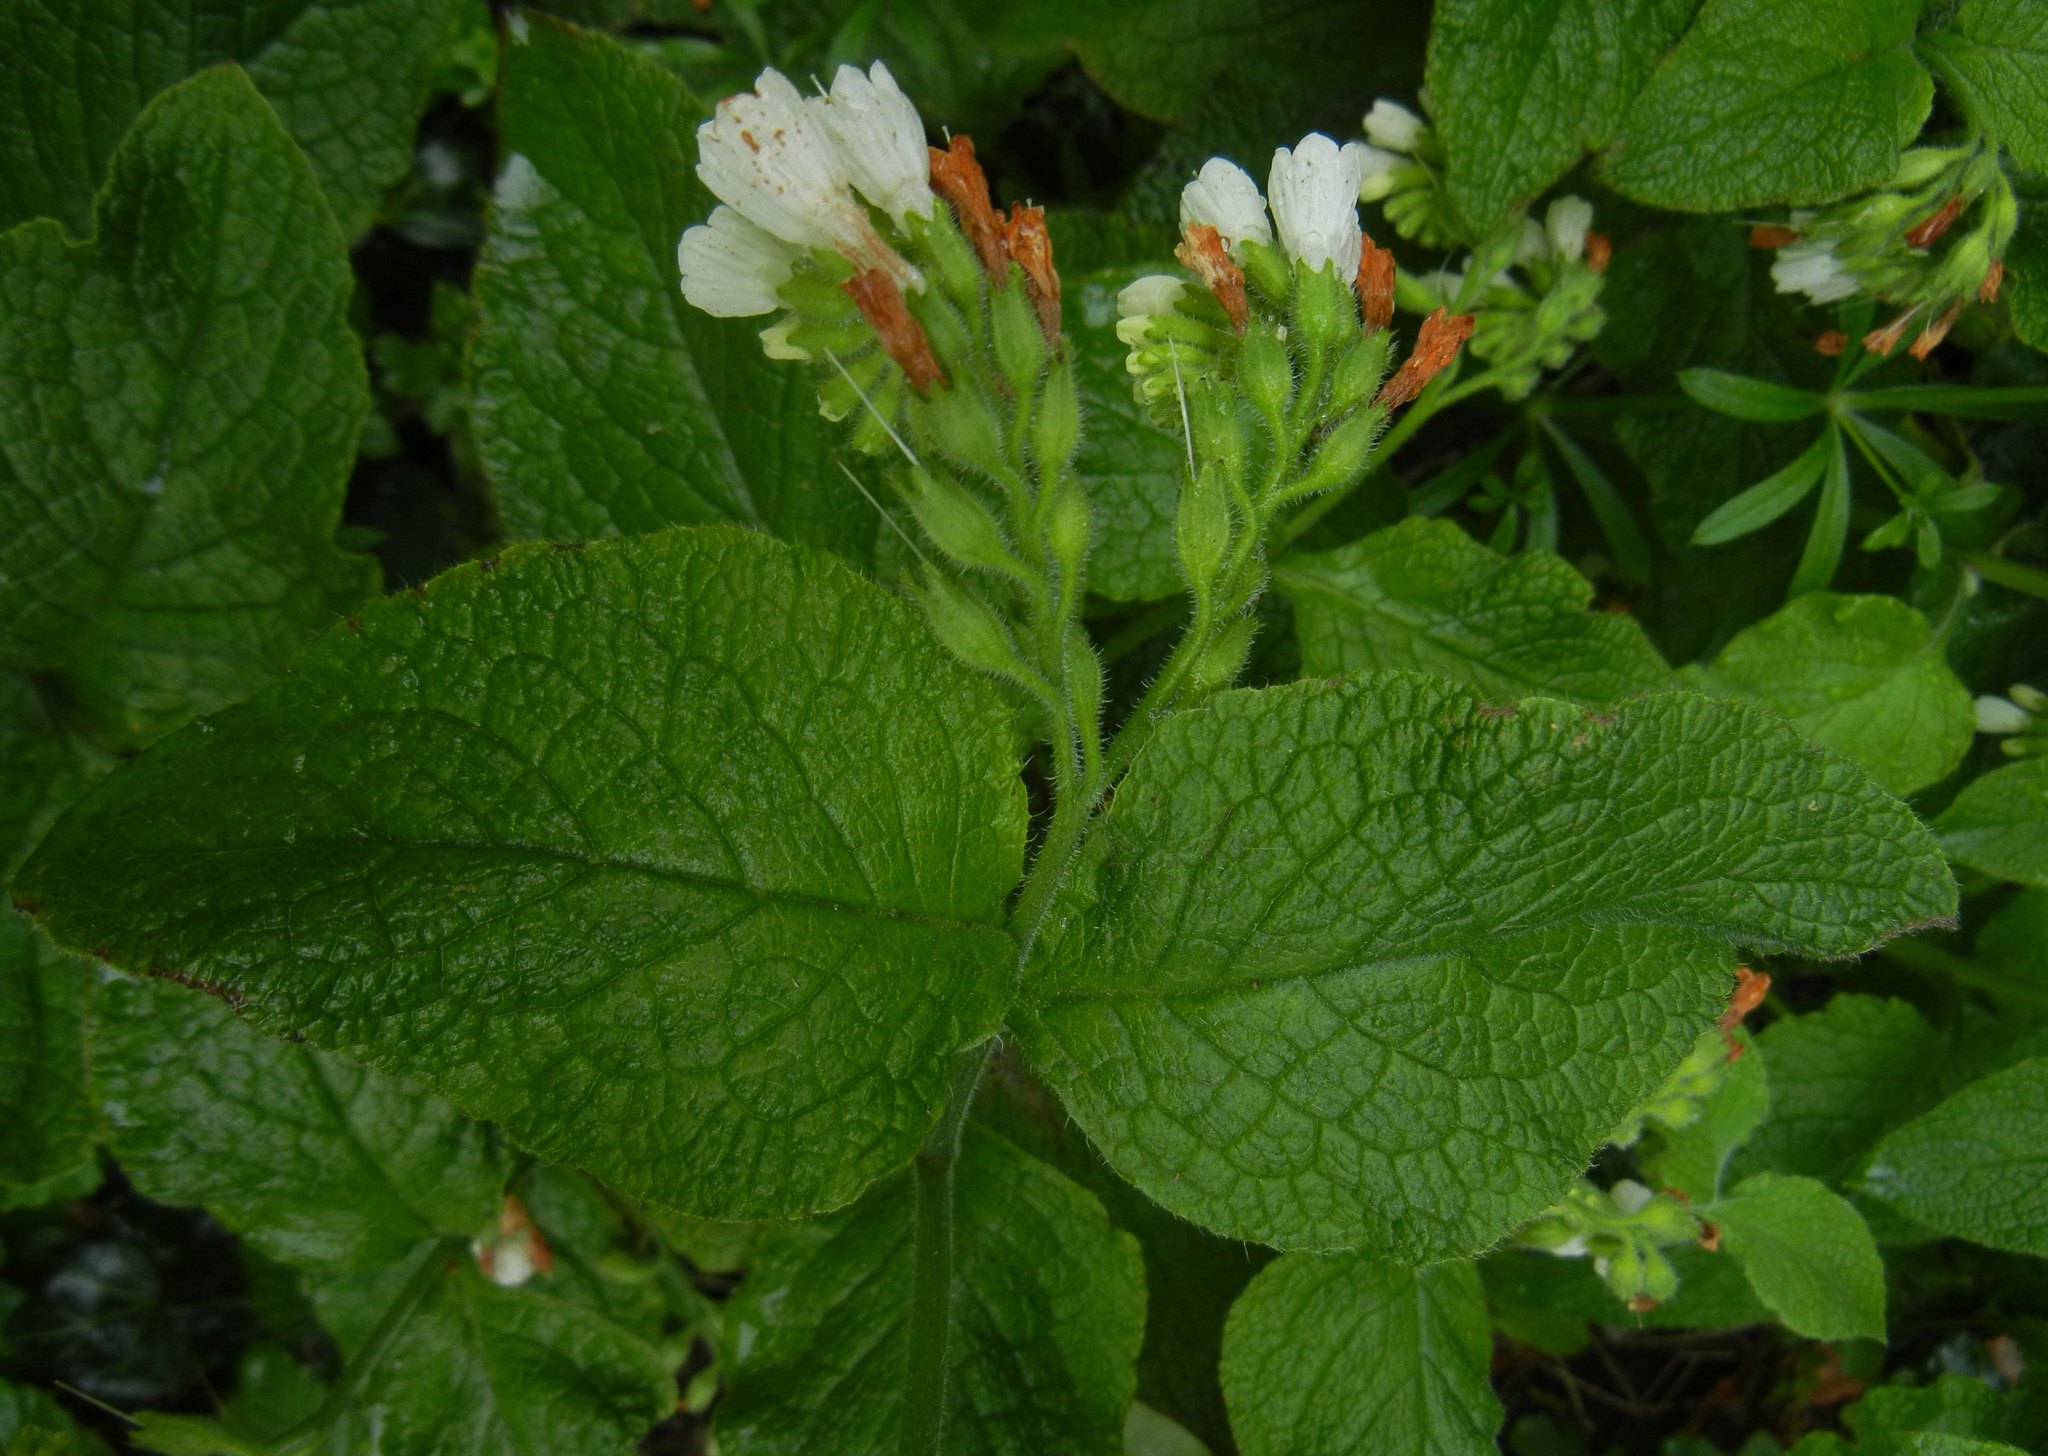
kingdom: Plantae
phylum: Tracheophyta
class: Magnoliopsida
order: Boraginales
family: Boraginaceae
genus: Symphytum
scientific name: Symphytum orientale
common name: White comfrey
